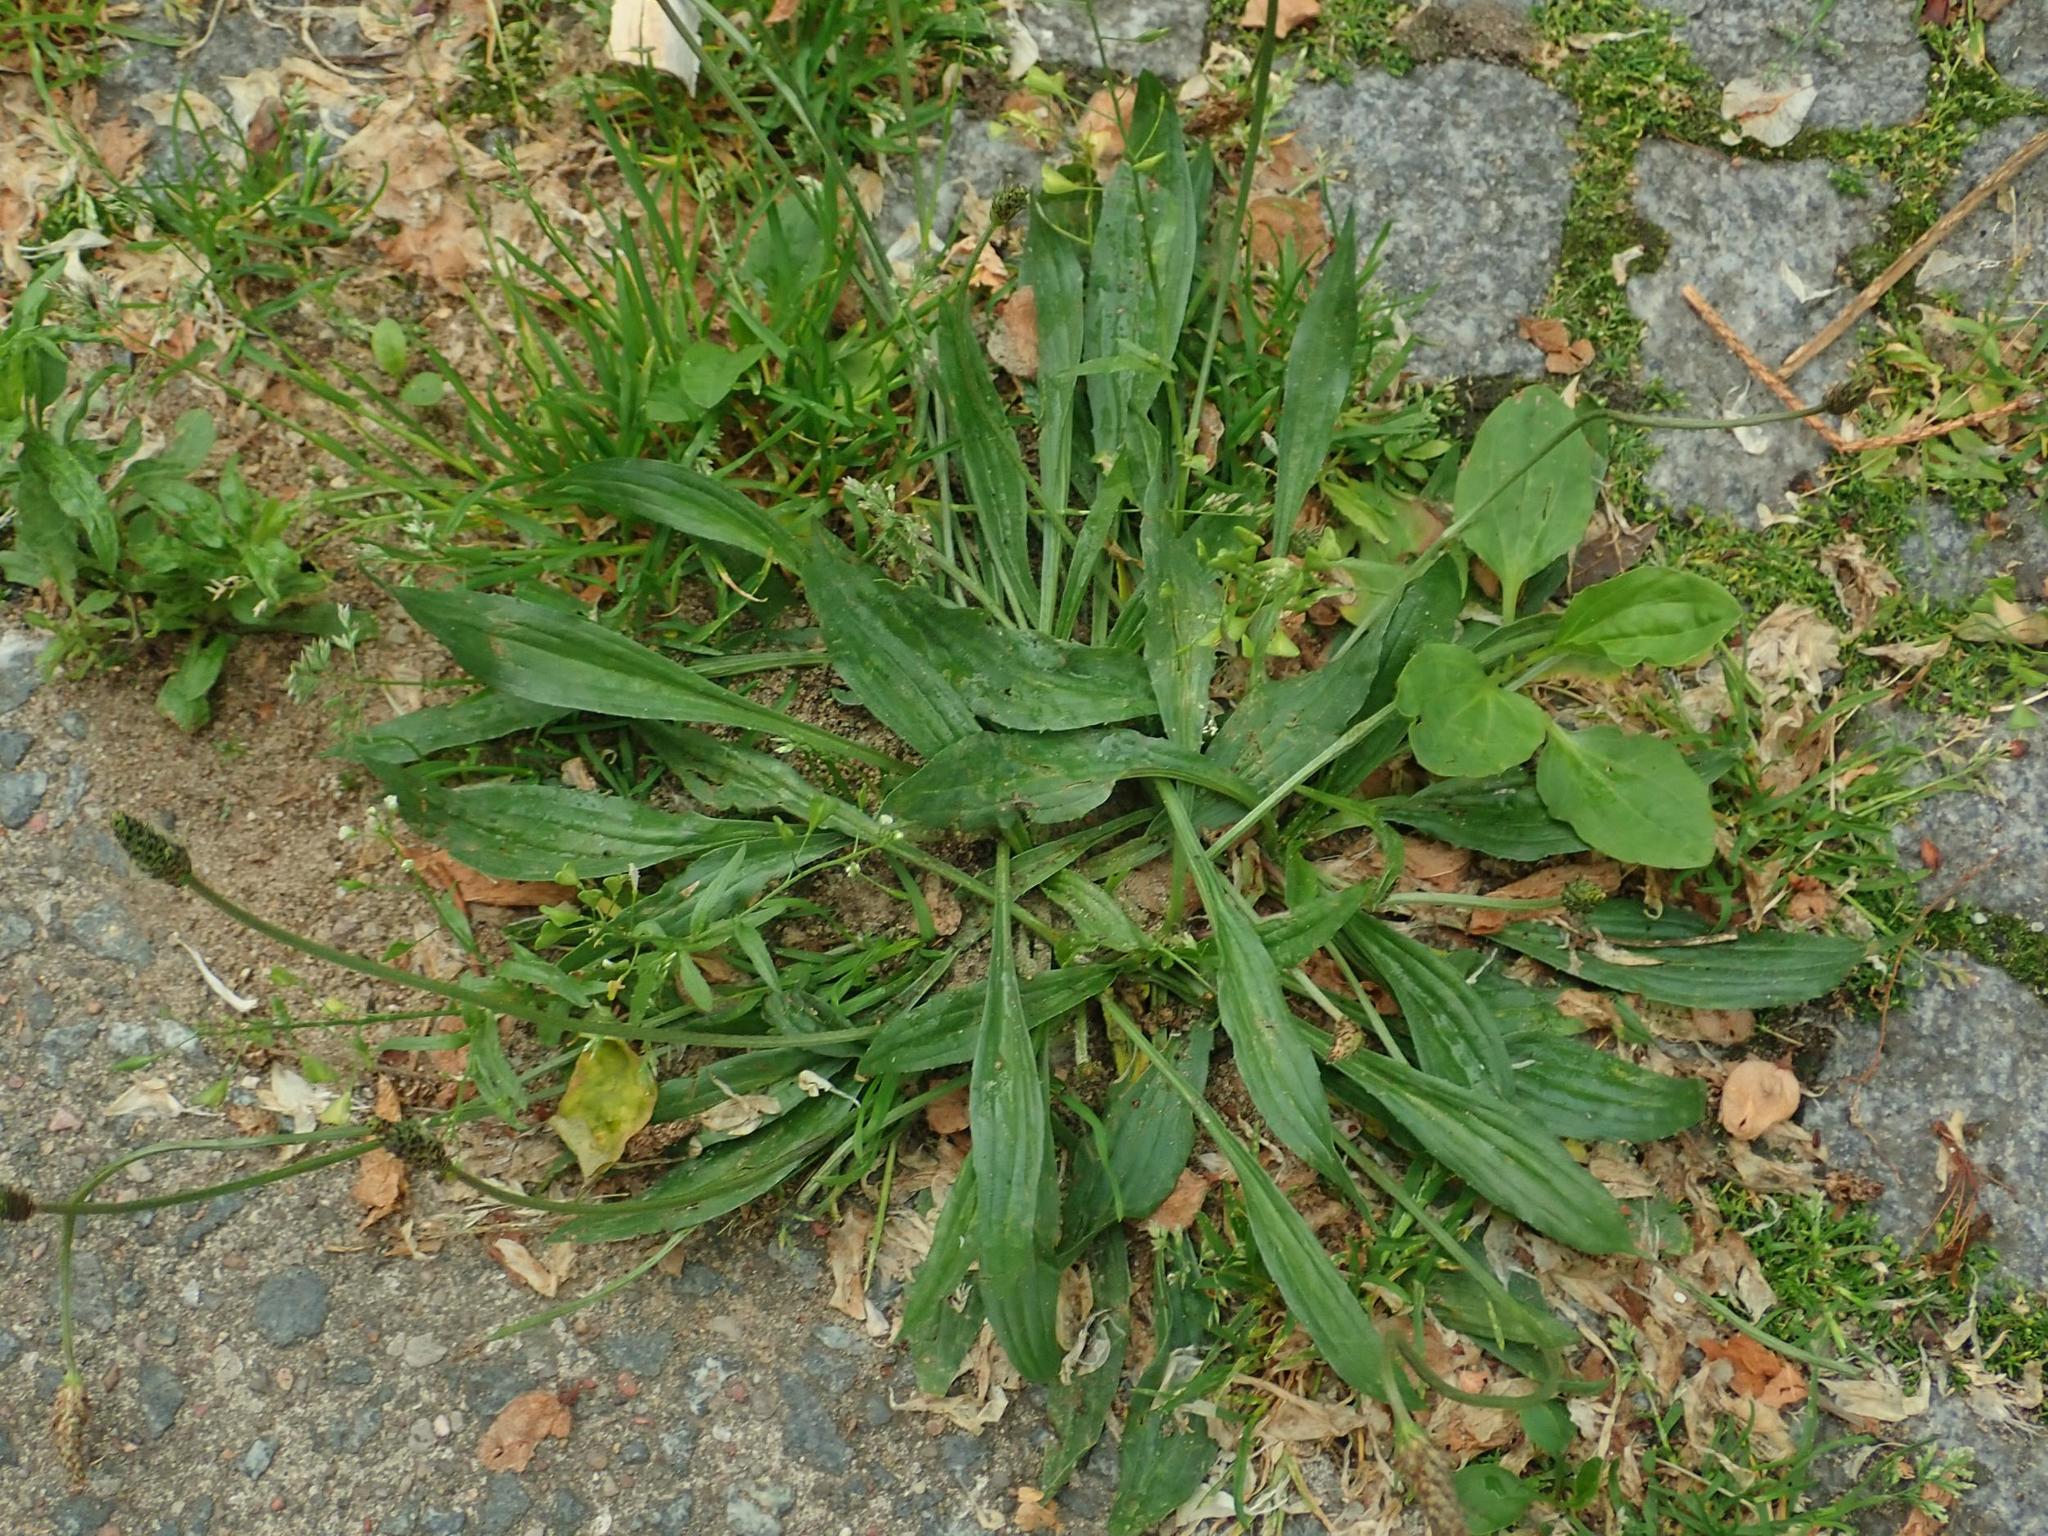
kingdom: Plantae
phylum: Tracheophyta
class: Magnoliopsida
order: Lamiales
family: Plantaginaceae
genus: Plantago
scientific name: Plantago lanceolata
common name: Ribwort plantain
